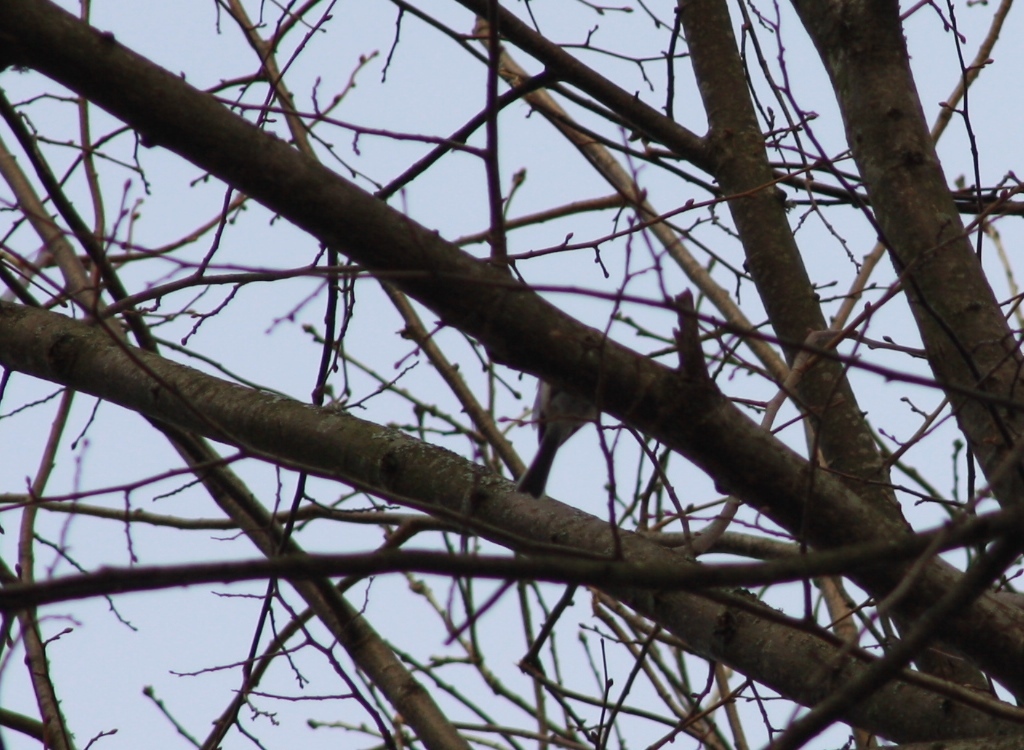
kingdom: Animalia
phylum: Chordata
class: Aves
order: Passeriformes
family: Paridae
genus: Poecile
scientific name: Poecile palustris
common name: Marsh tit
